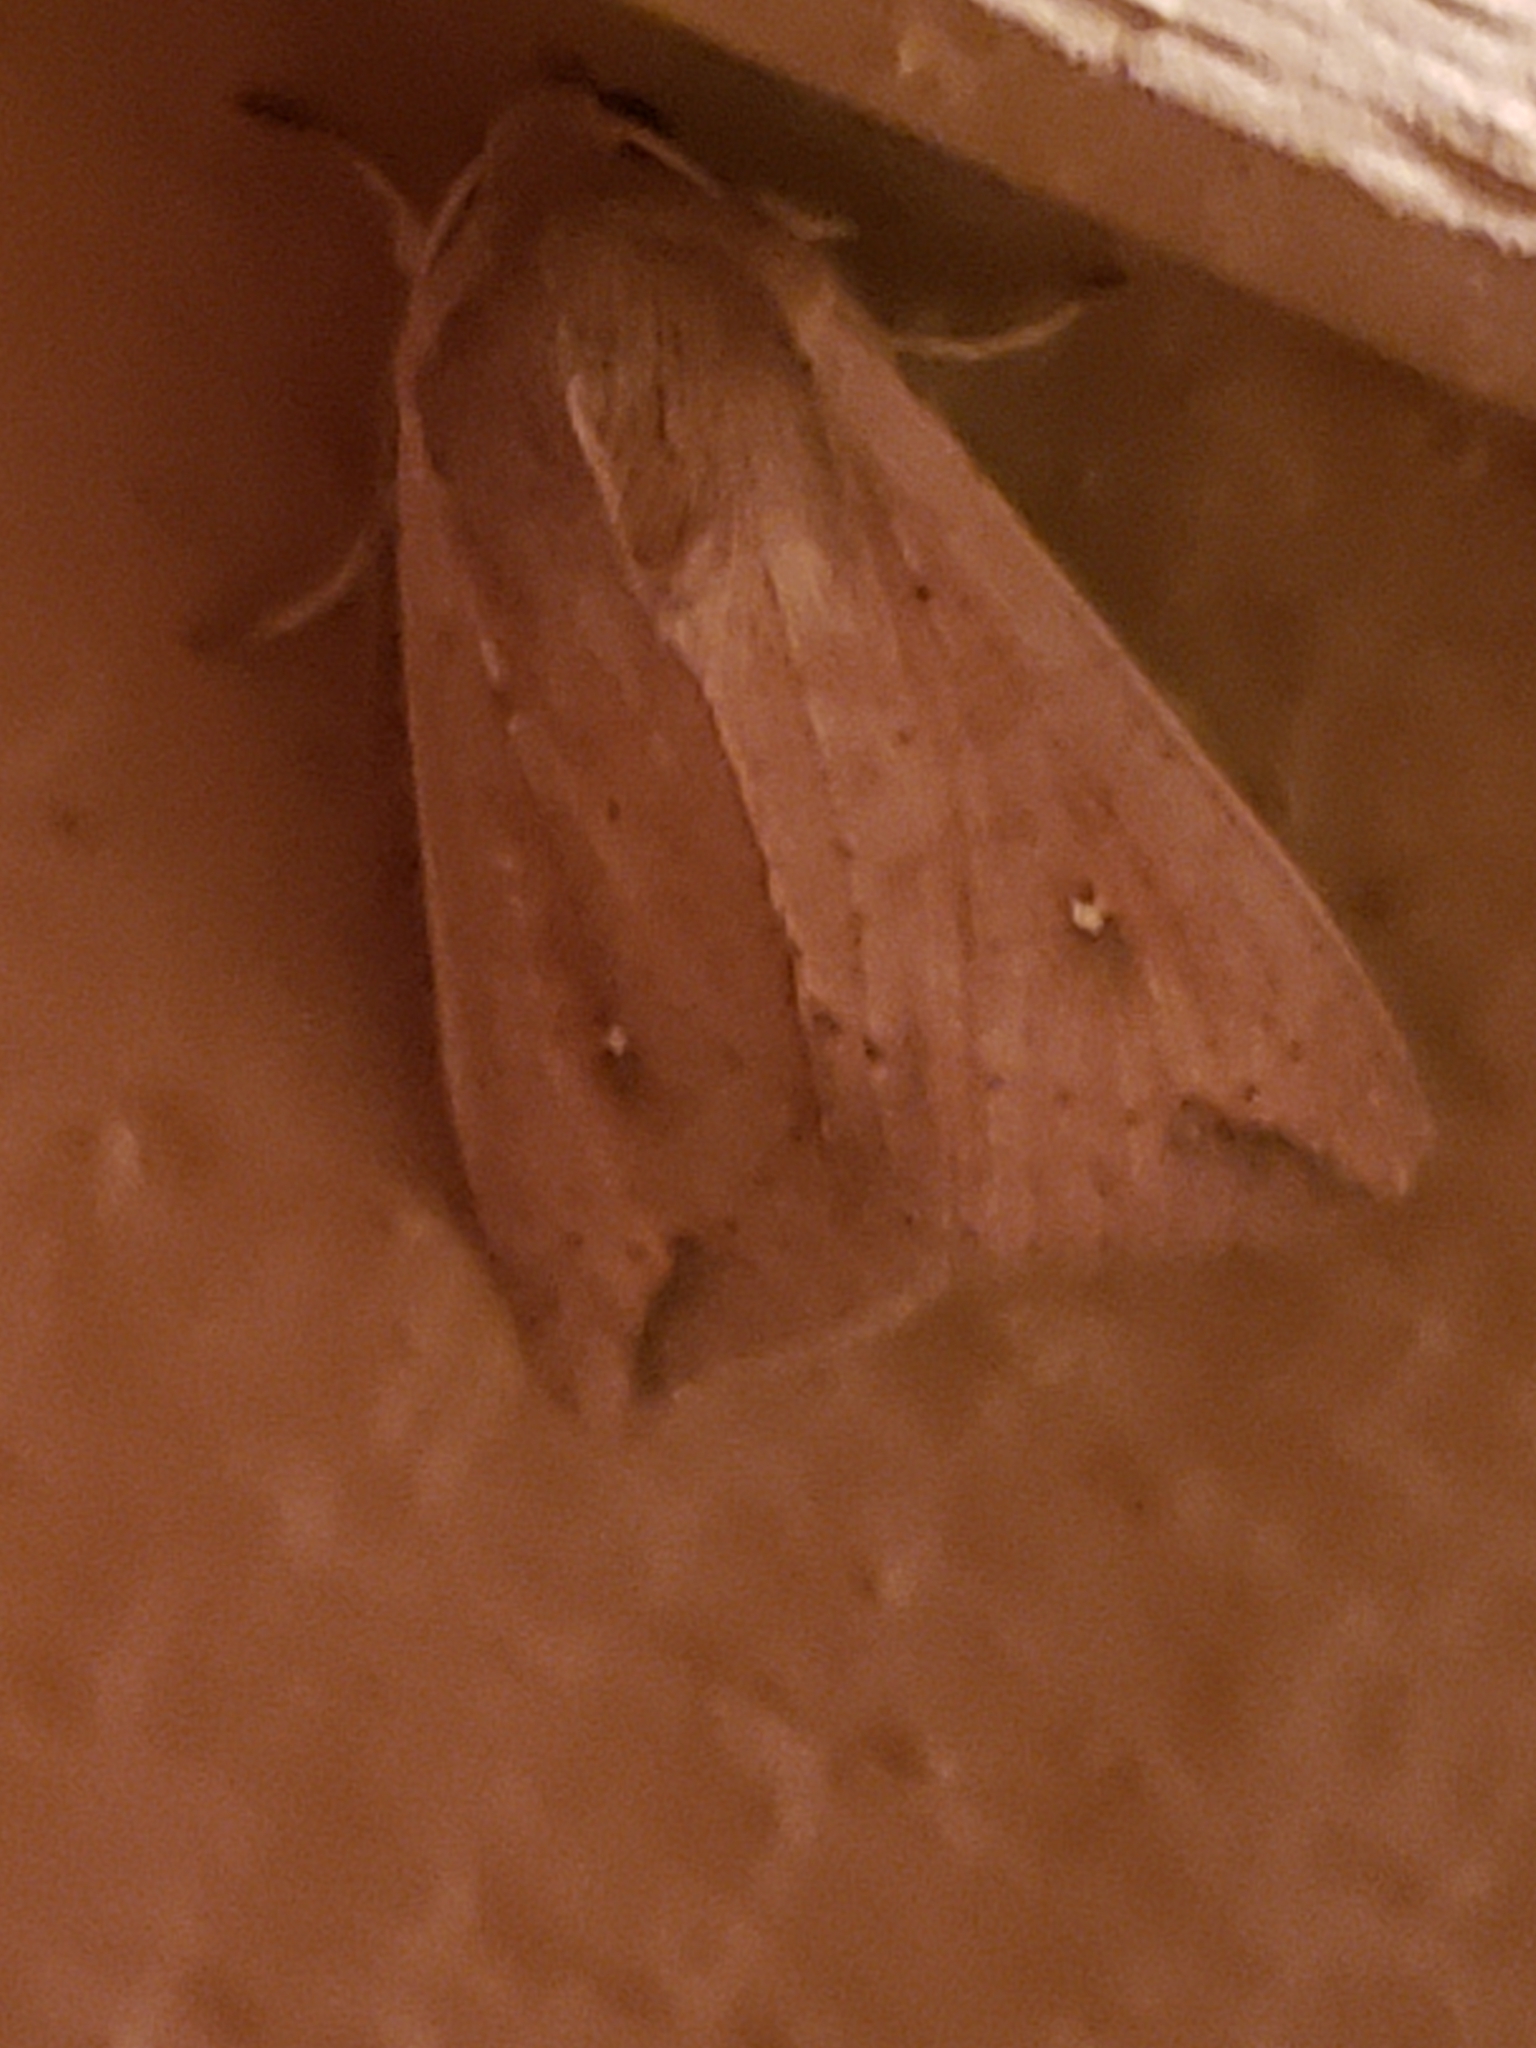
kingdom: Animalia
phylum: Arthropoda
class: Insecta
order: Lepidoptera
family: Noctuidae
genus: Mythimna
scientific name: Mythimna unipuncta
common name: White-speck
